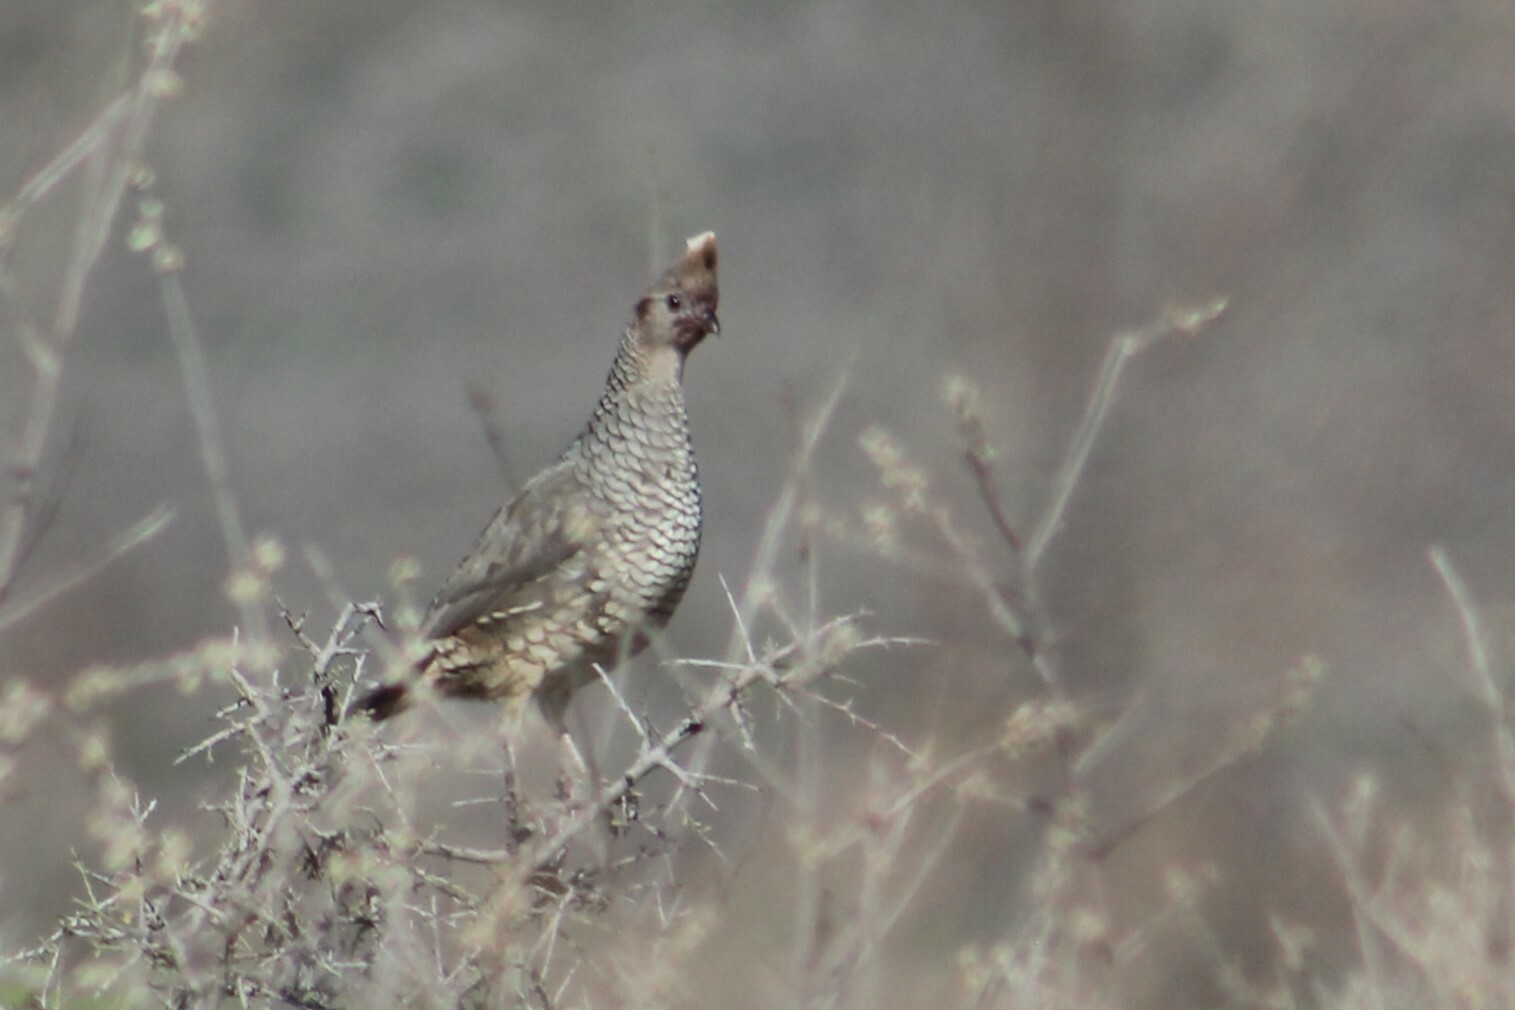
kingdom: Animalia
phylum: Chordata
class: Aves
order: Galliformes
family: Odontophoridae
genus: Callipepla
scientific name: Callipepla squamata
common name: Scaled quail
